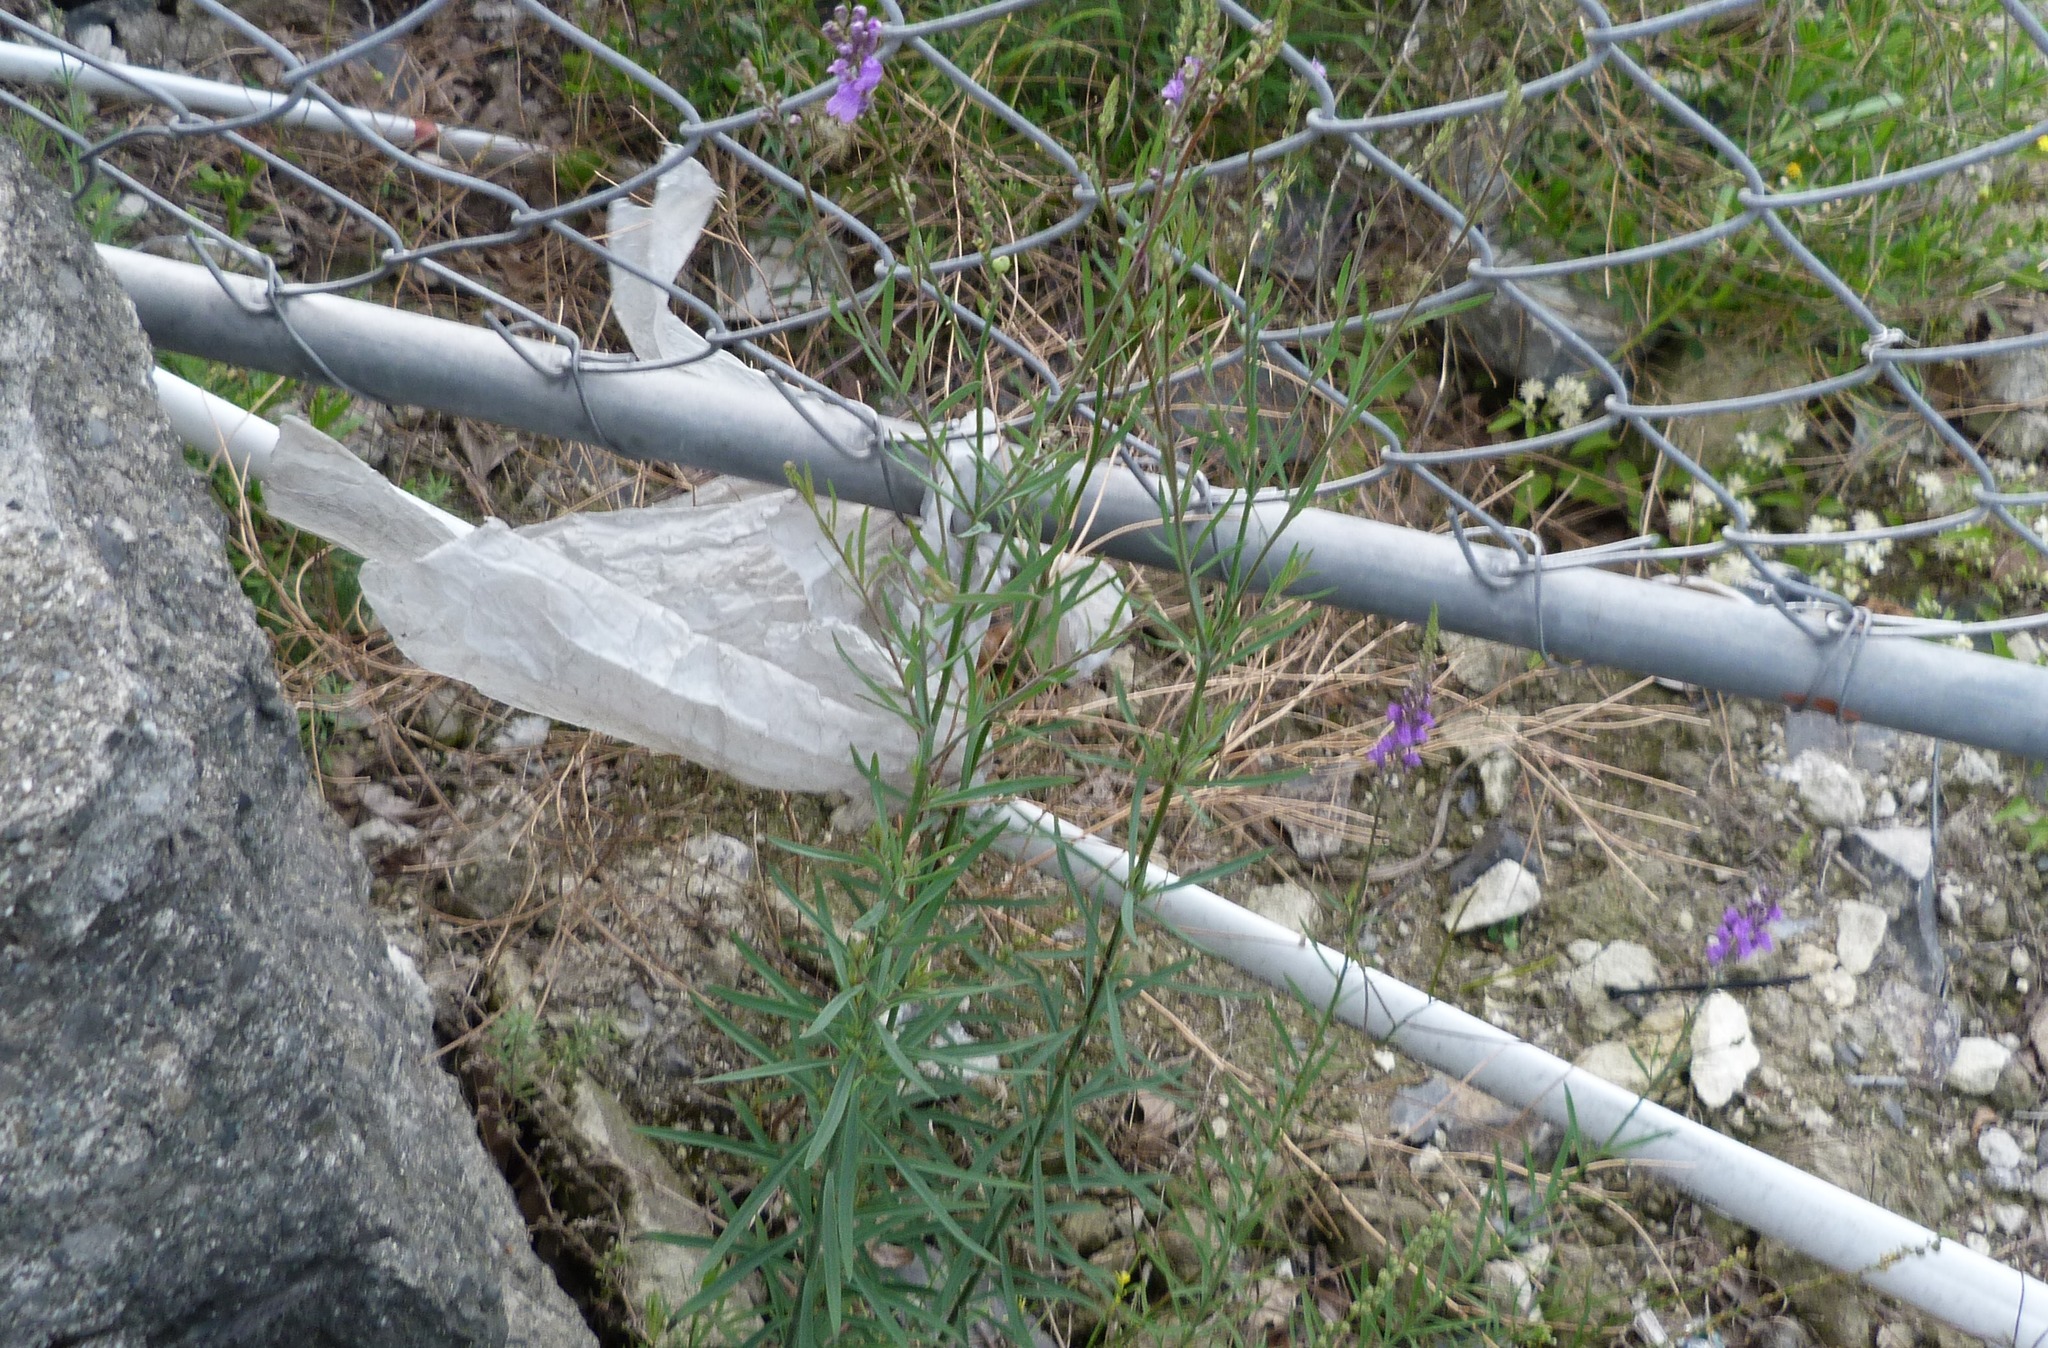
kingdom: Plantae
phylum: Tracheophyta
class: Magnoliopsida
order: Lamiales
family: Plantaginaceae
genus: Linaria
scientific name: Linaria purpurea
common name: Purple toadflax
